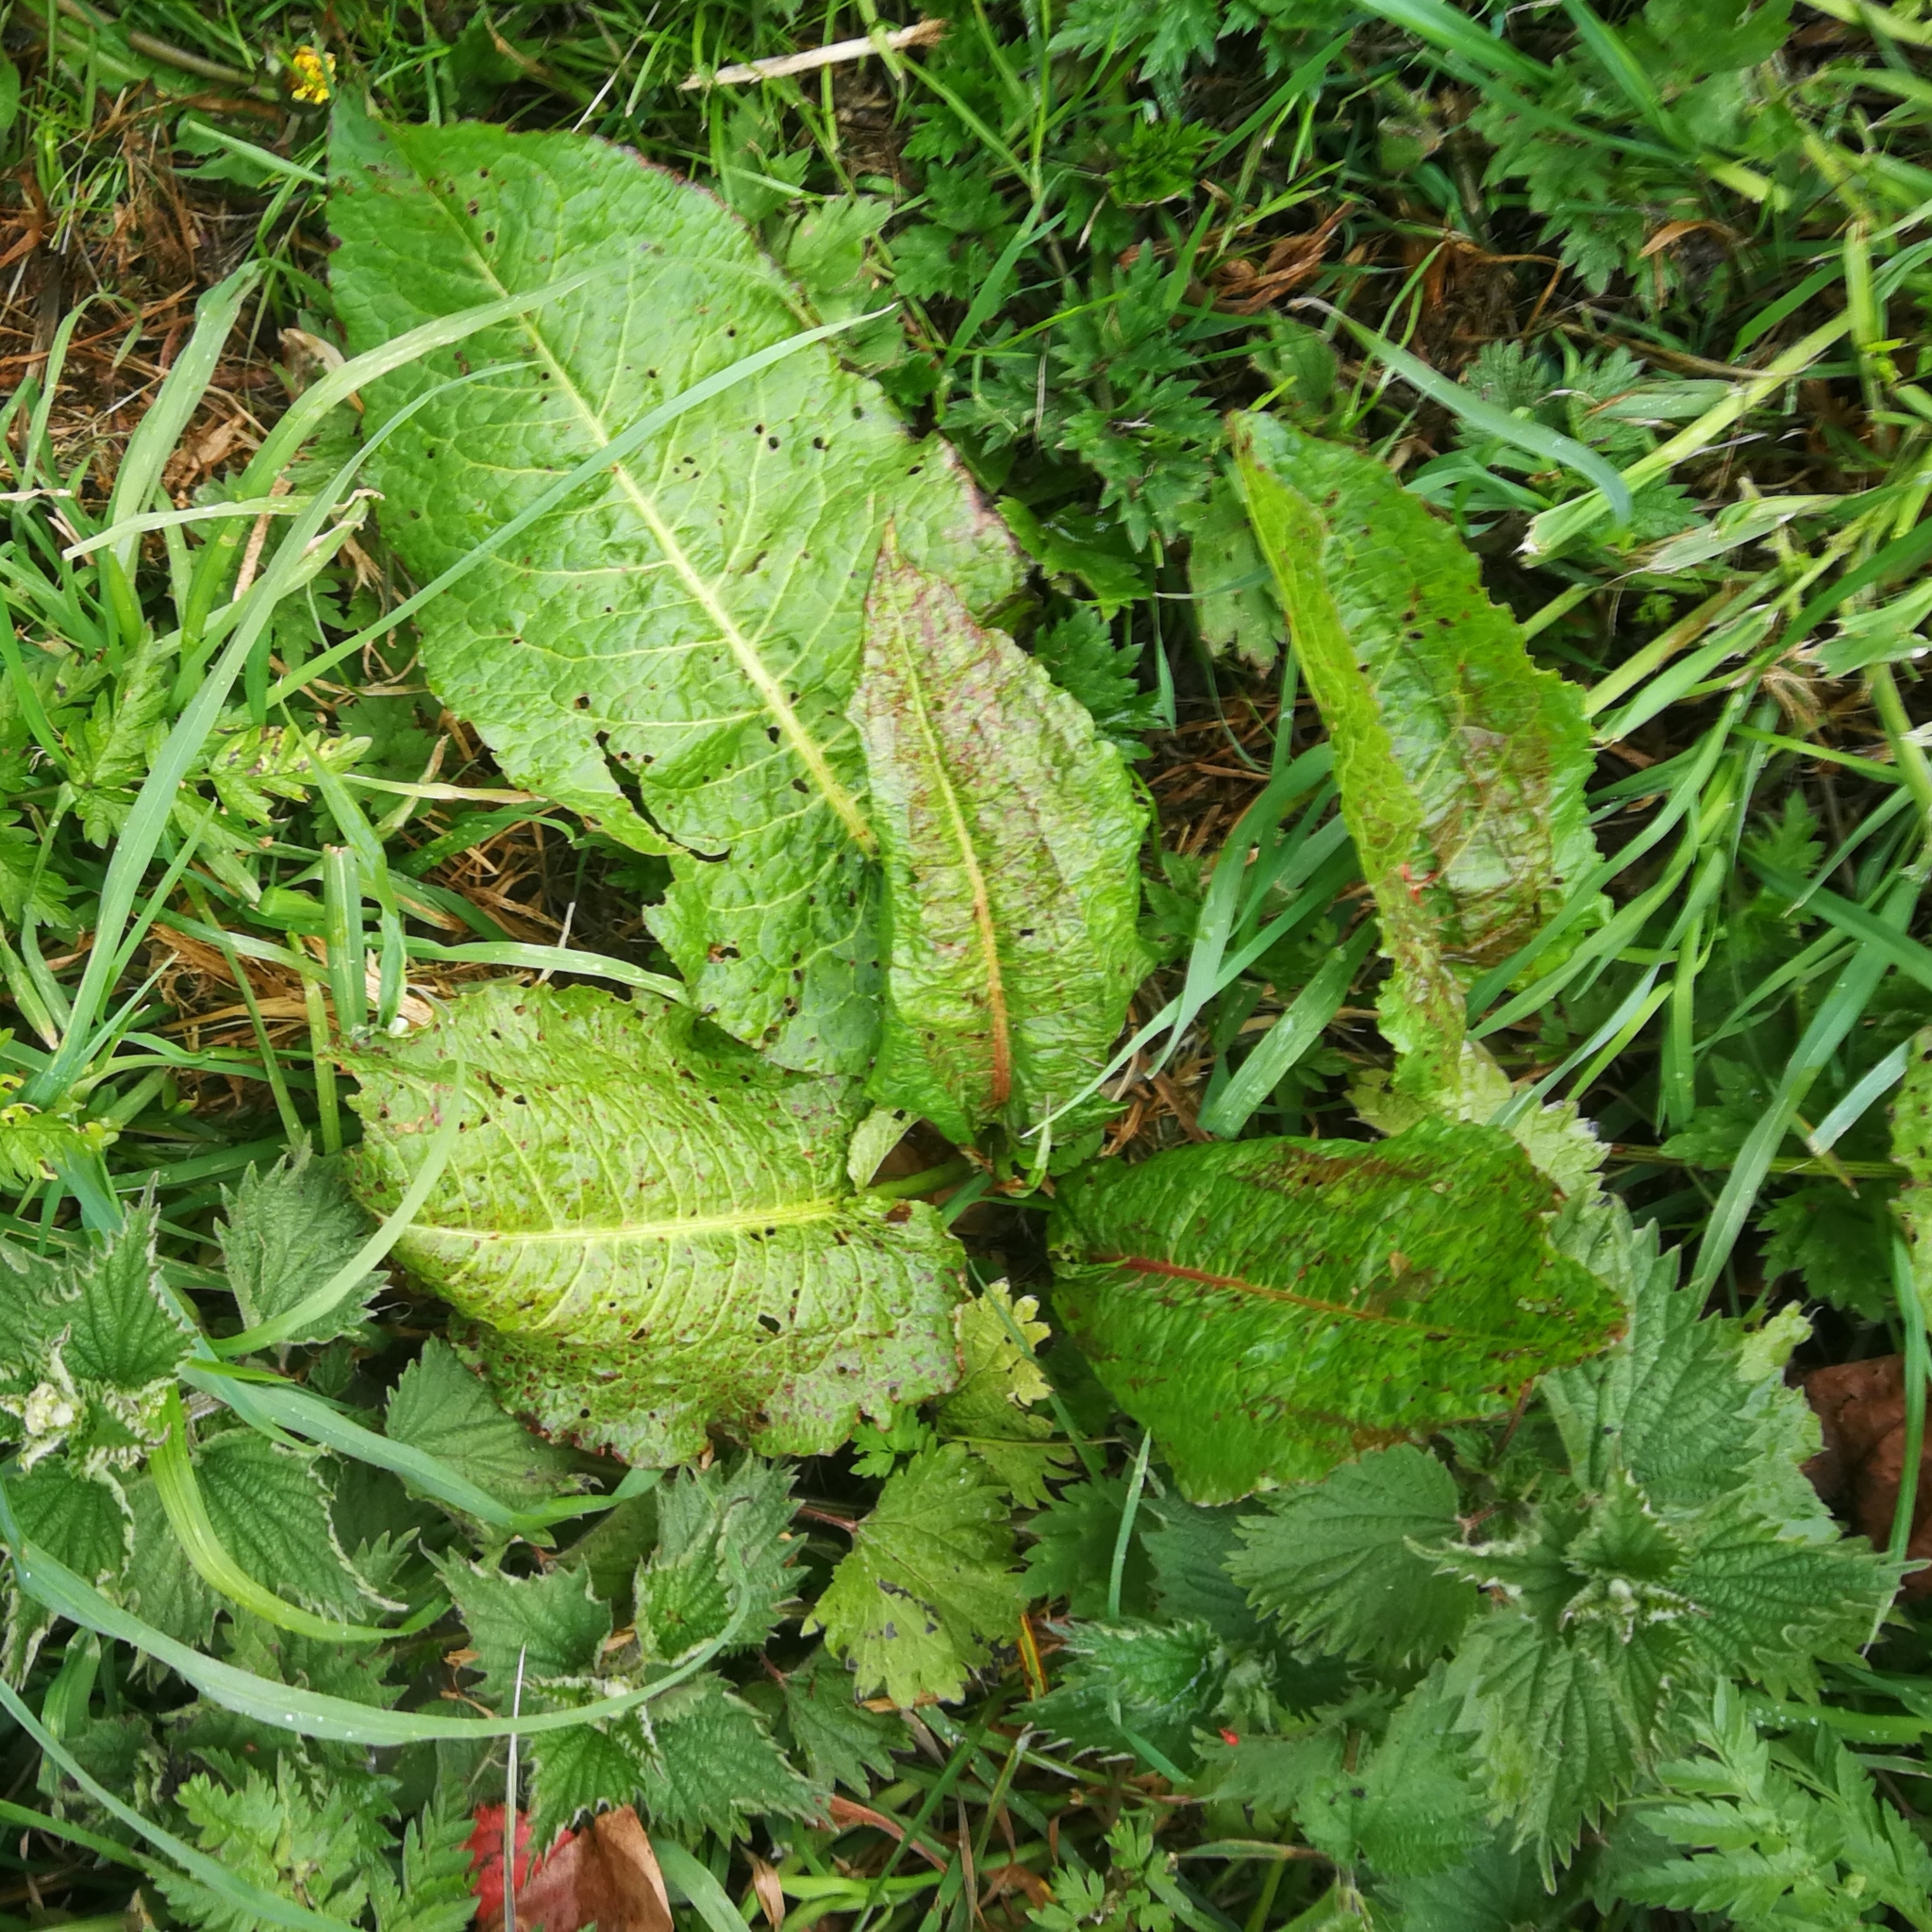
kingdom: Plantae
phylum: Tracheophyta
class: Magnoliopsida
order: Caryophyllales
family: Polygonaceae
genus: Rumex
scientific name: Rumex obtusifolius
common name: Bitter dock
